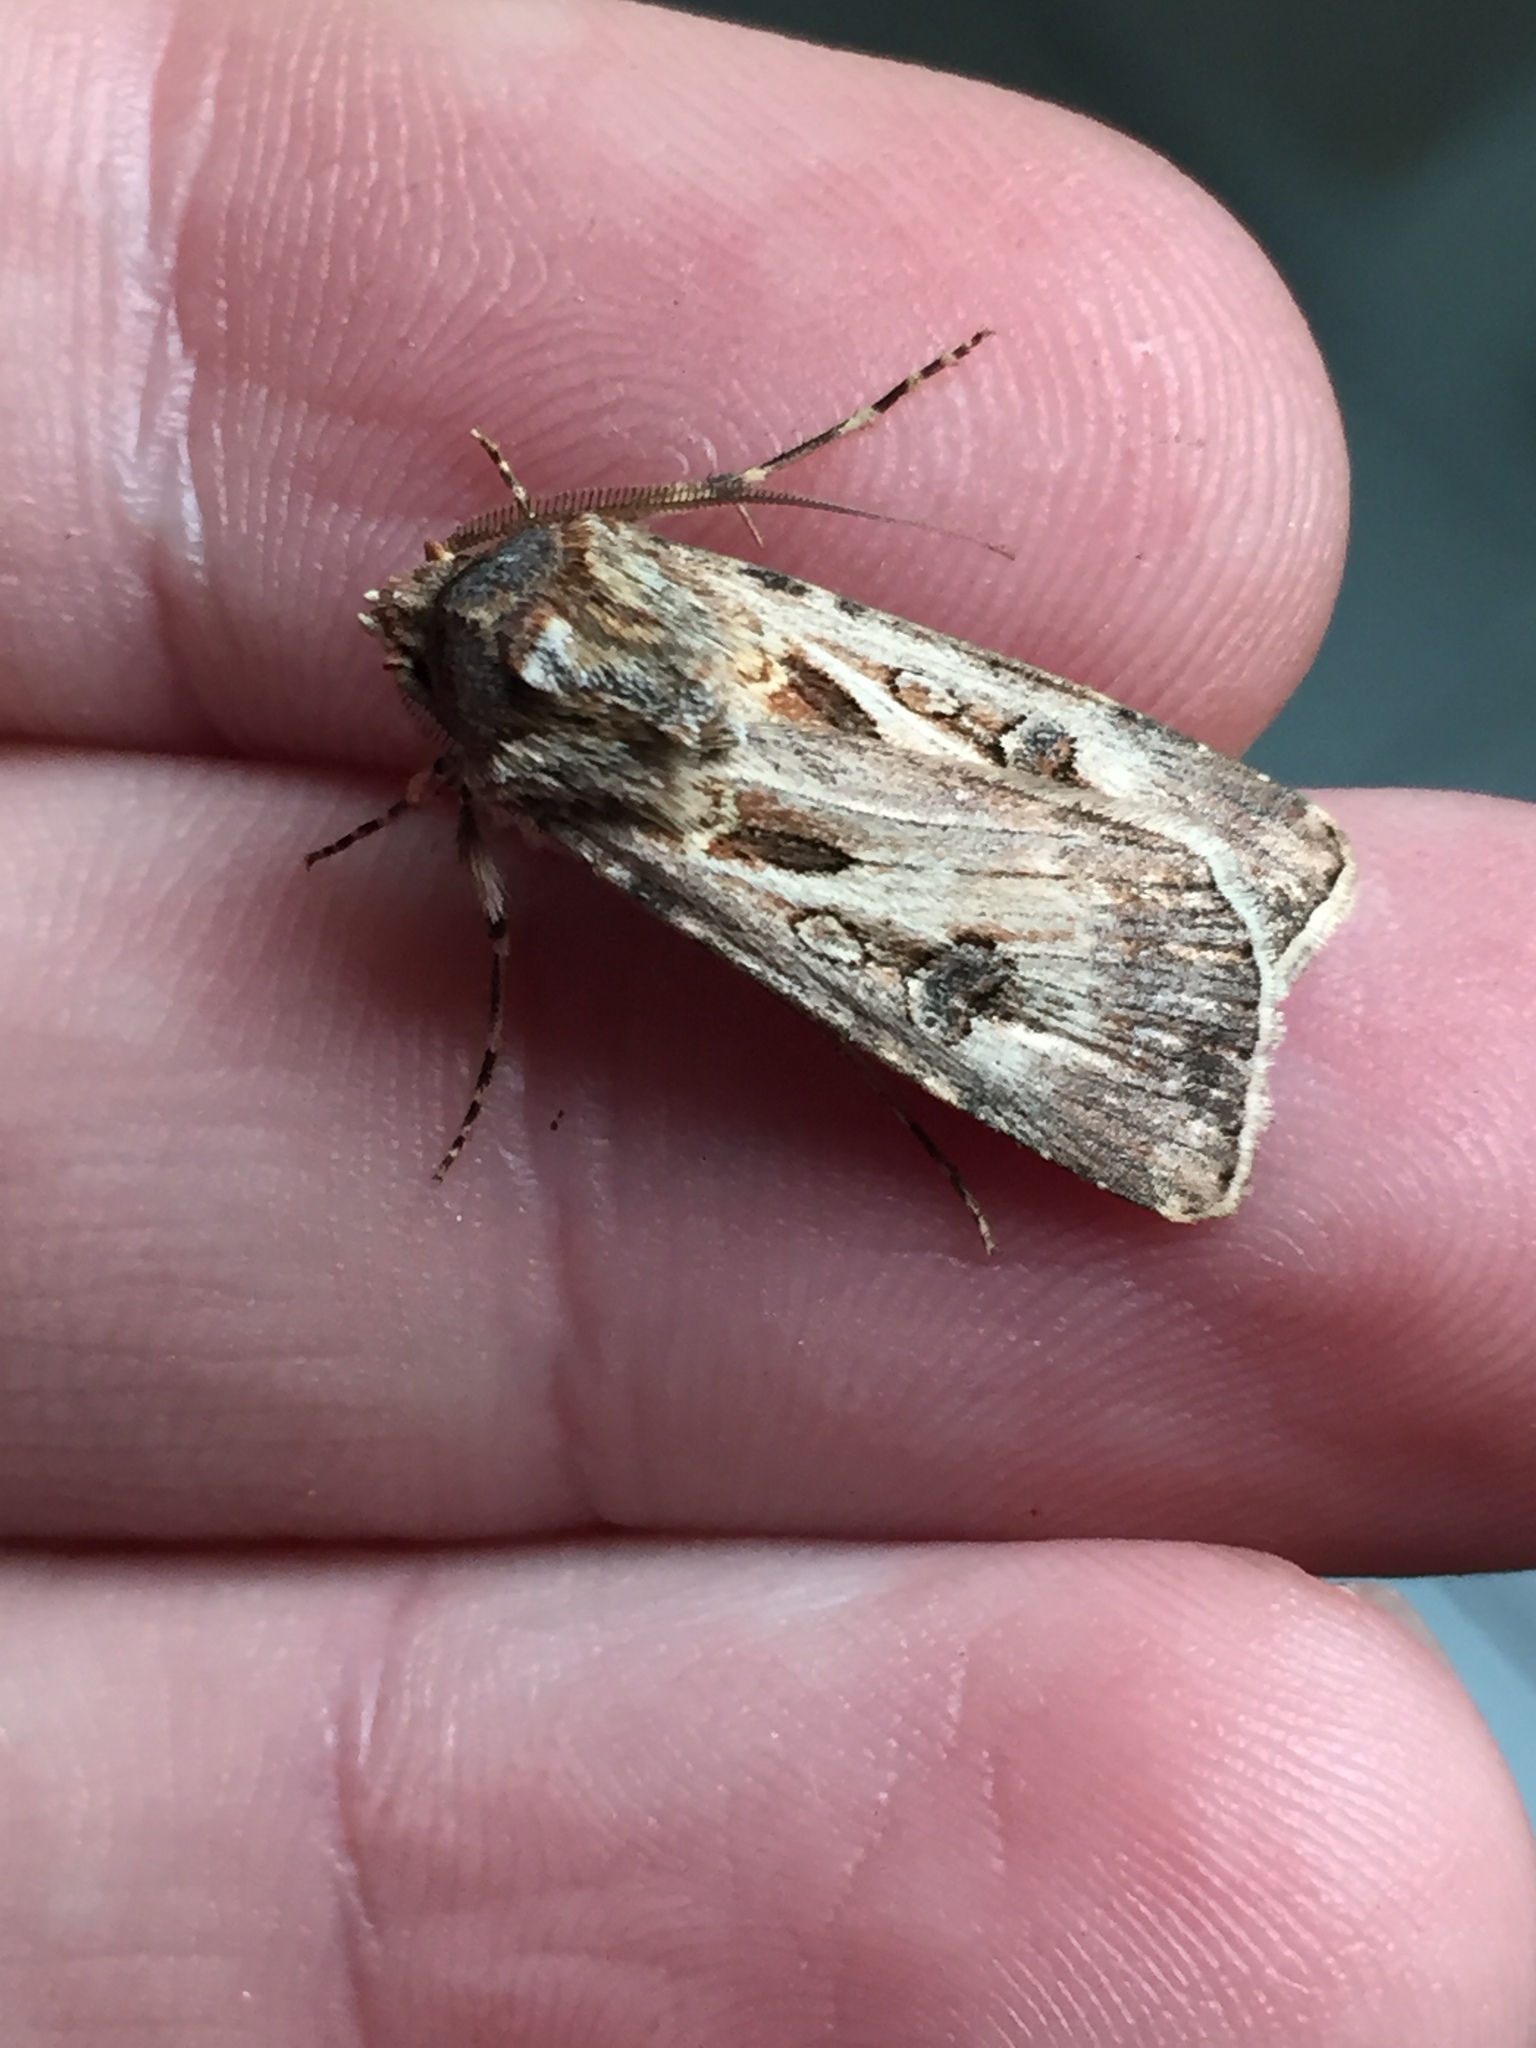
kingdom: Animalia
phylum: Arthropoda
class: Insecta
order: Lepidoptera
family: Noctuidae
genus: Agrotis
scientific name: Agrotis munda
